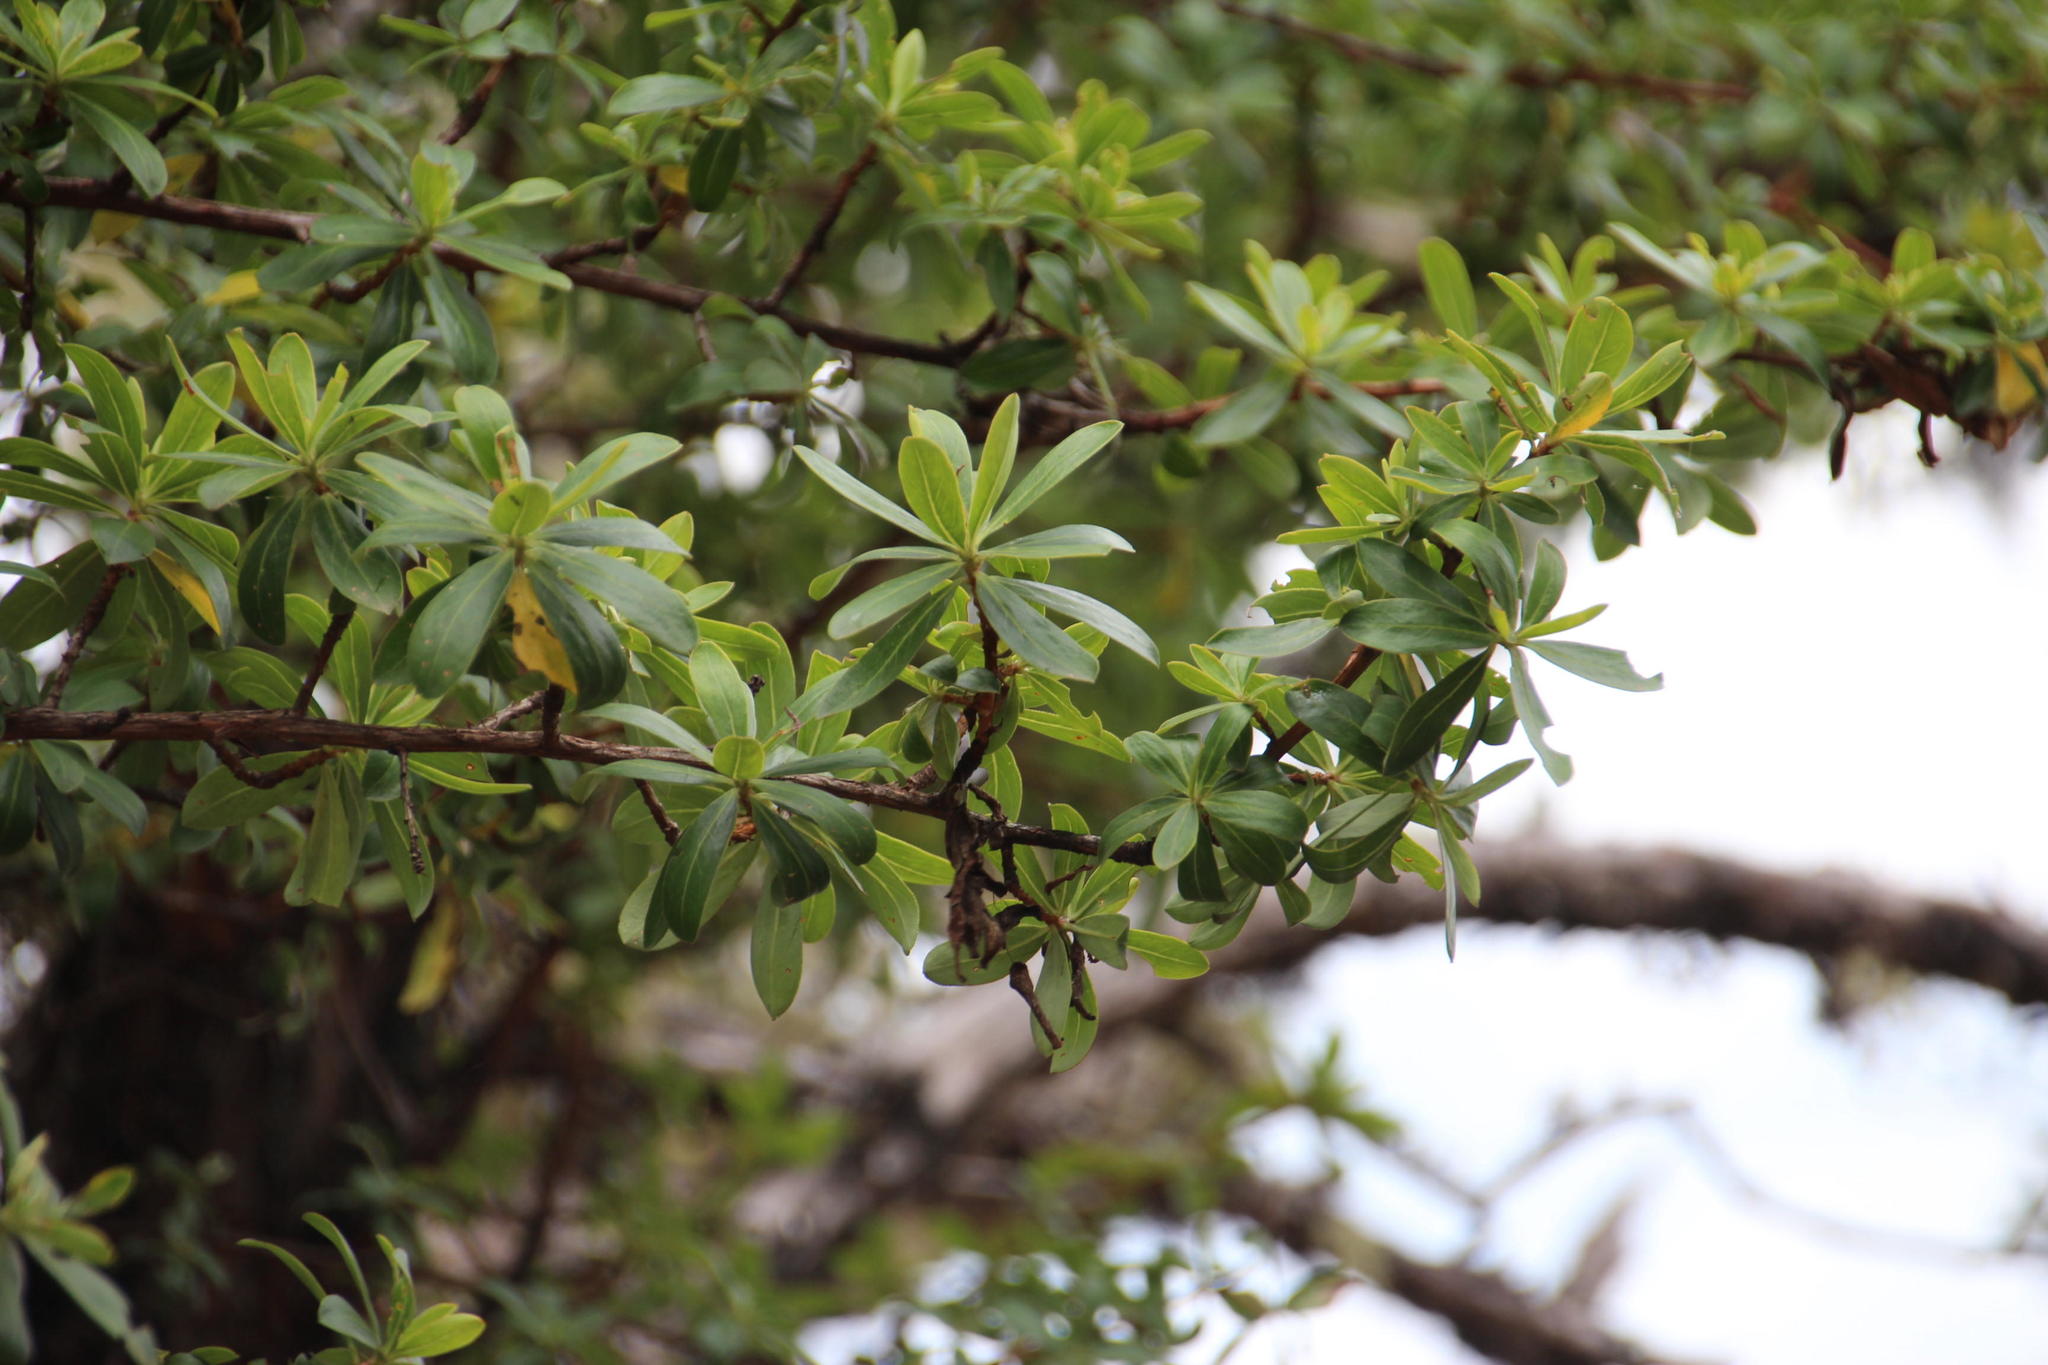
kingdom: Plantae
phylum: Tracheophyta
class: Magnoliopsida
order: Escalloniales
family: Escalloniaceae
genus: Escallonia
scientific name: Escallonia resinosa
